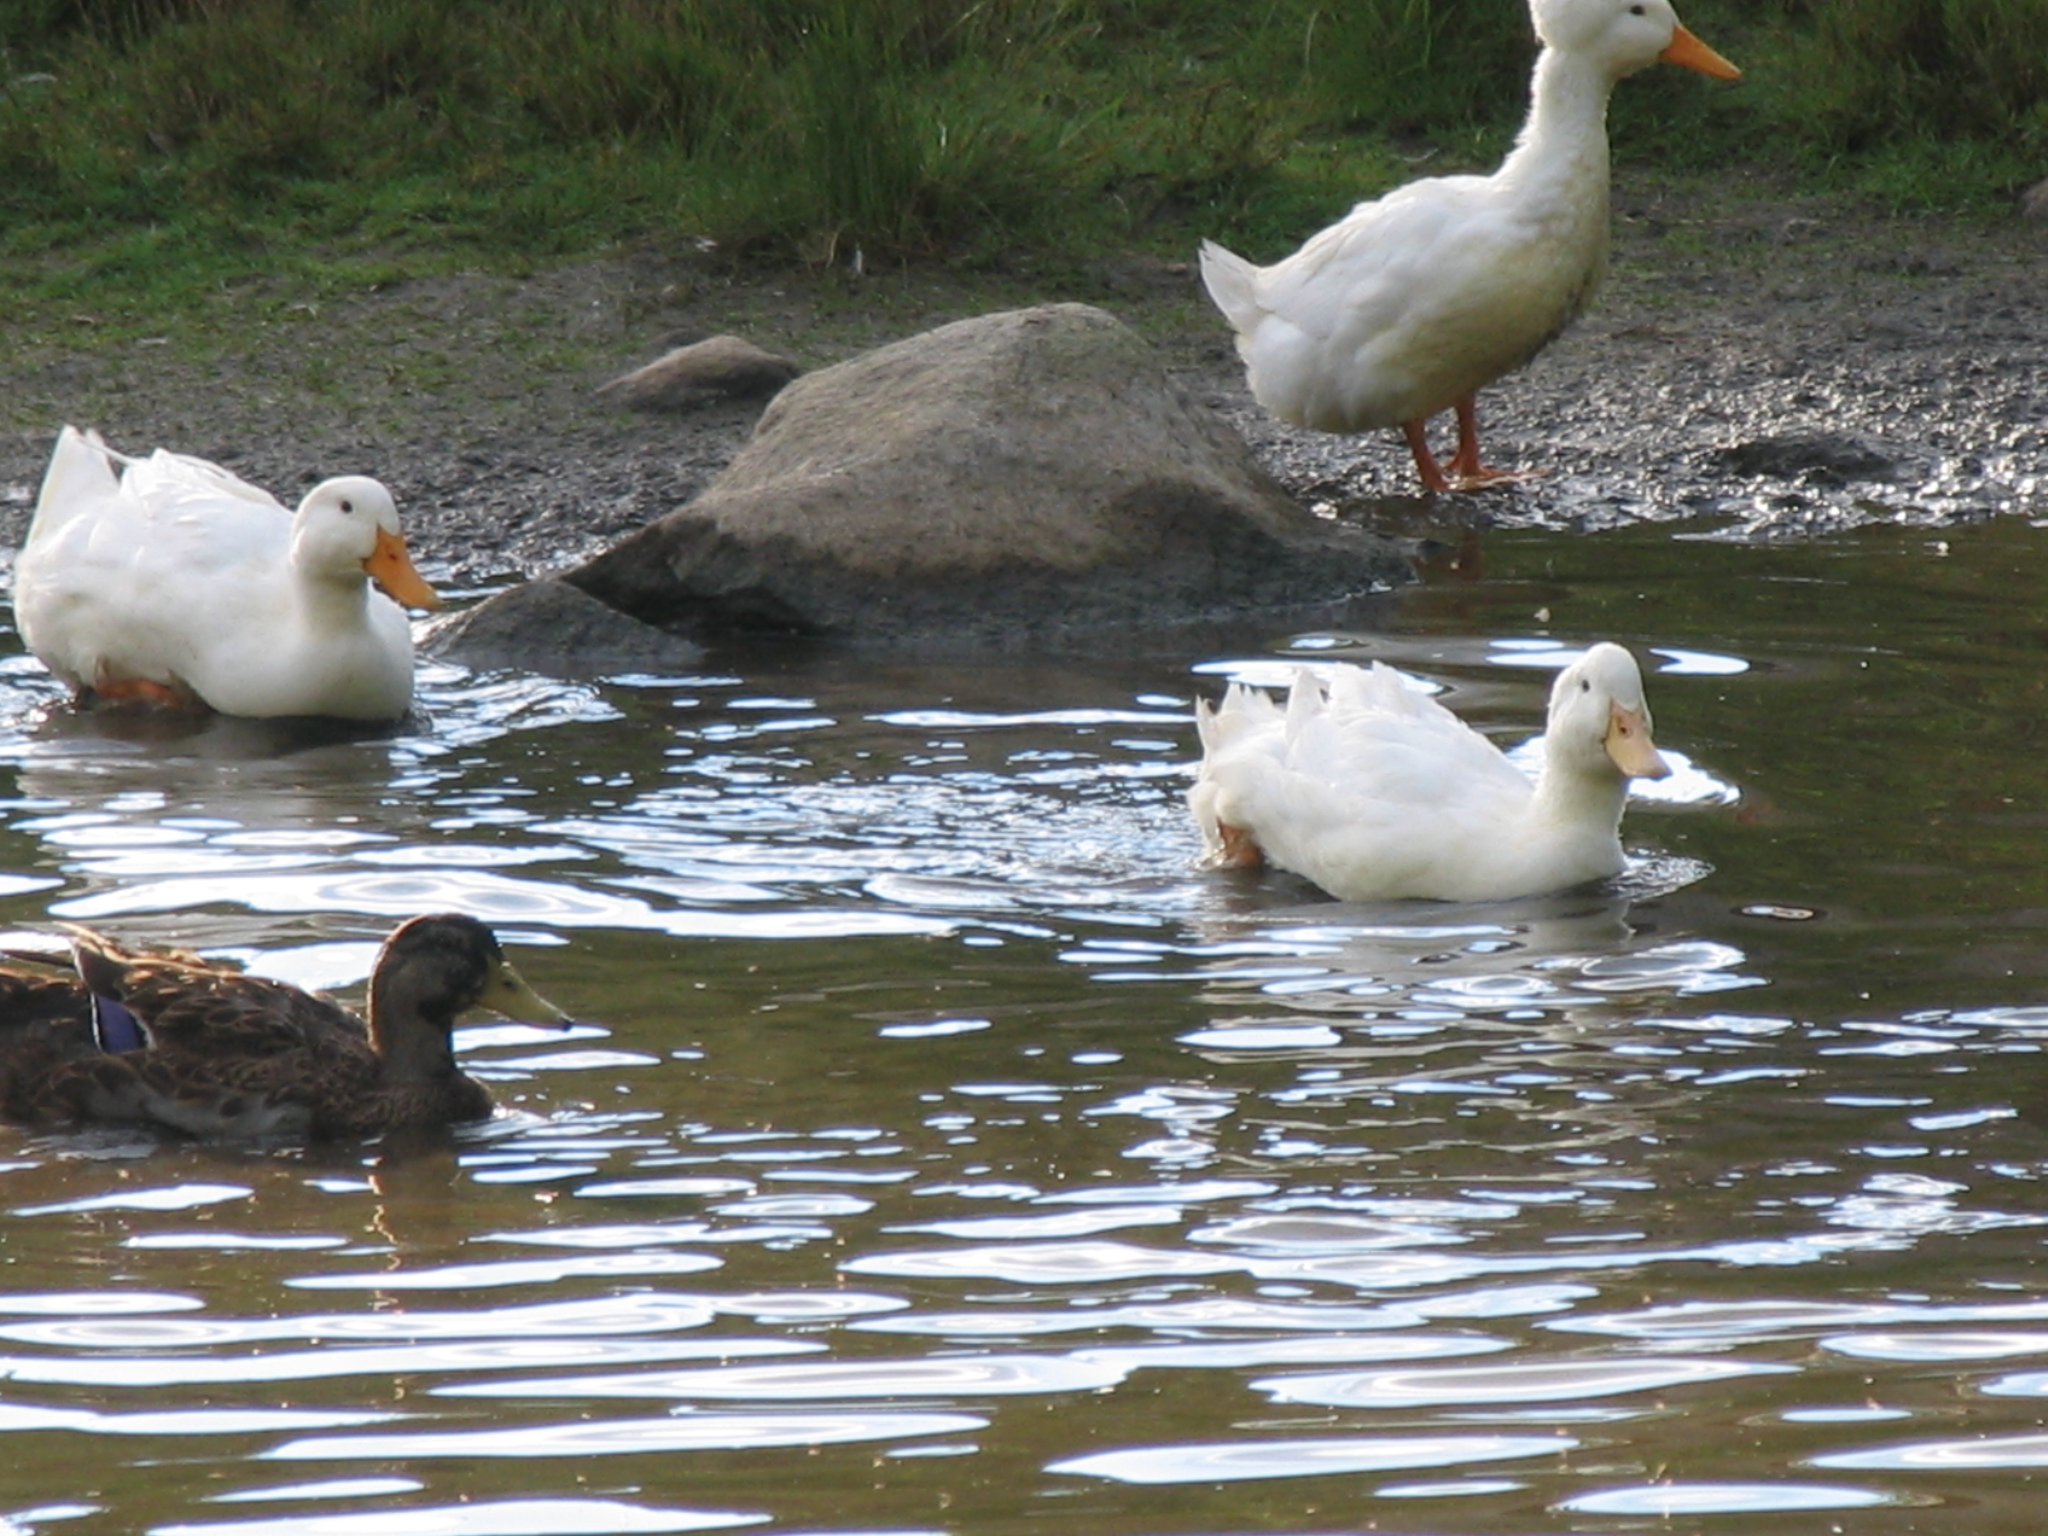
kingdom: Animalia
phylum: Chordata
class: Aves
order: Anseriformes
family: Anatidae
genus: Anas
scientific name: Anas platyrhynchos
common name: Mallard
